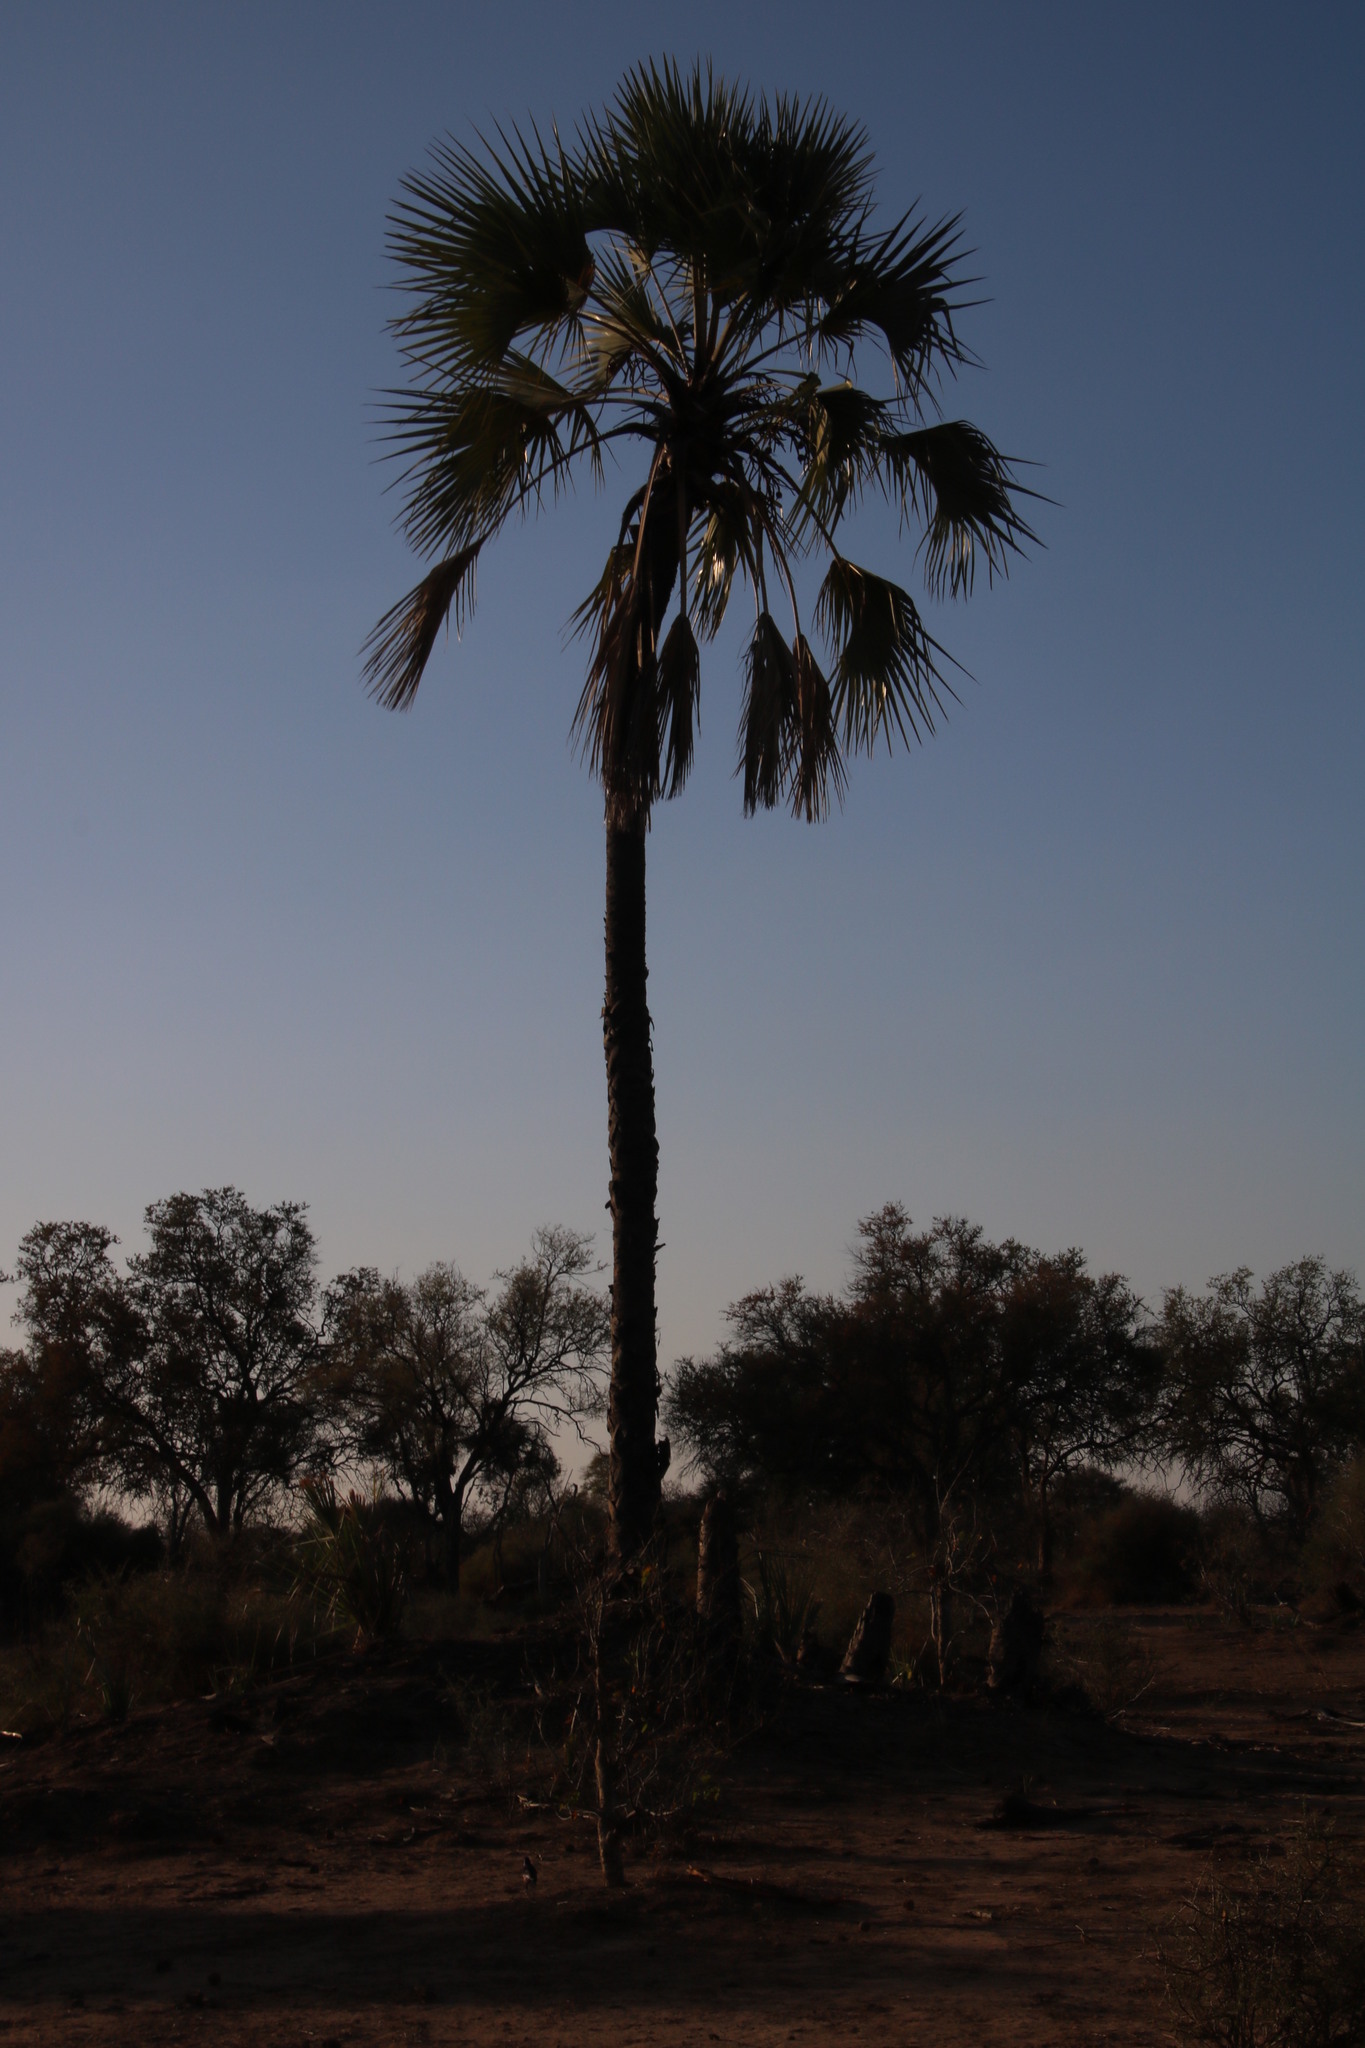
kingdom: Plantae
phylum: Tracheophyta
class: Liliopsida
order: Arecales
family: Arecaceae
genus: Hyphaene
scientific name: Hyphaene petersiana
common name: African ivory nut palm
